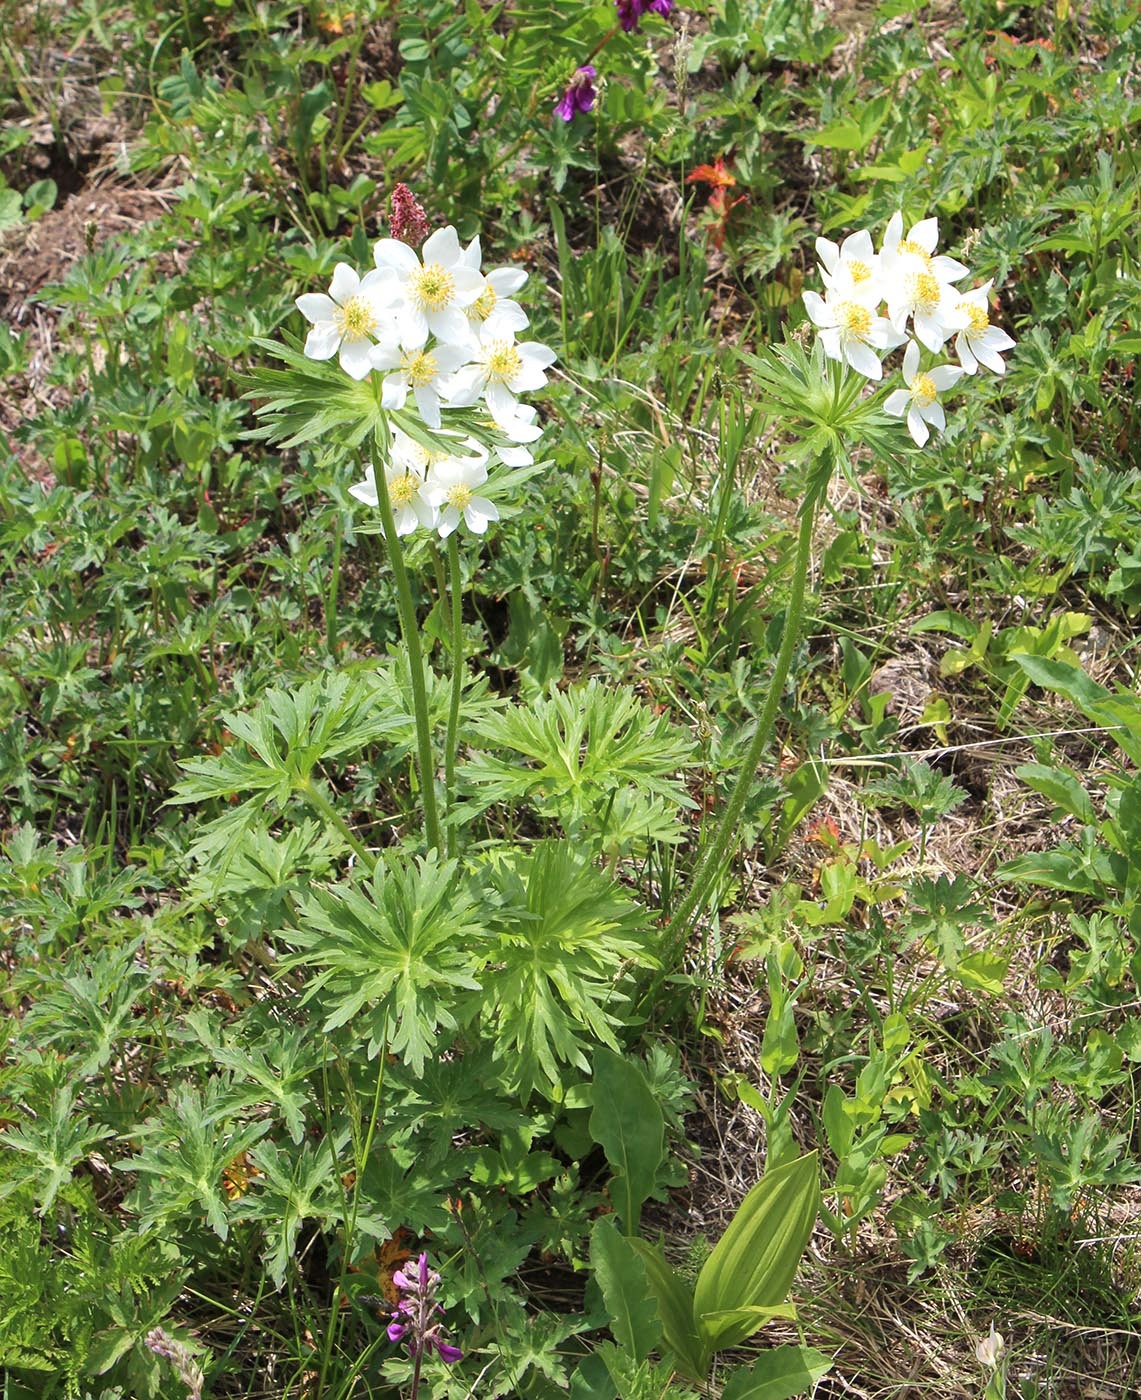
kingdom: Plantae
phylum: Tracheophyta
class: Magnoliopsida
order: Ranunculales
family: Ranunculaceae
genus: Anemonastrum
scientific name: Anemonastrum narcissiflorum
